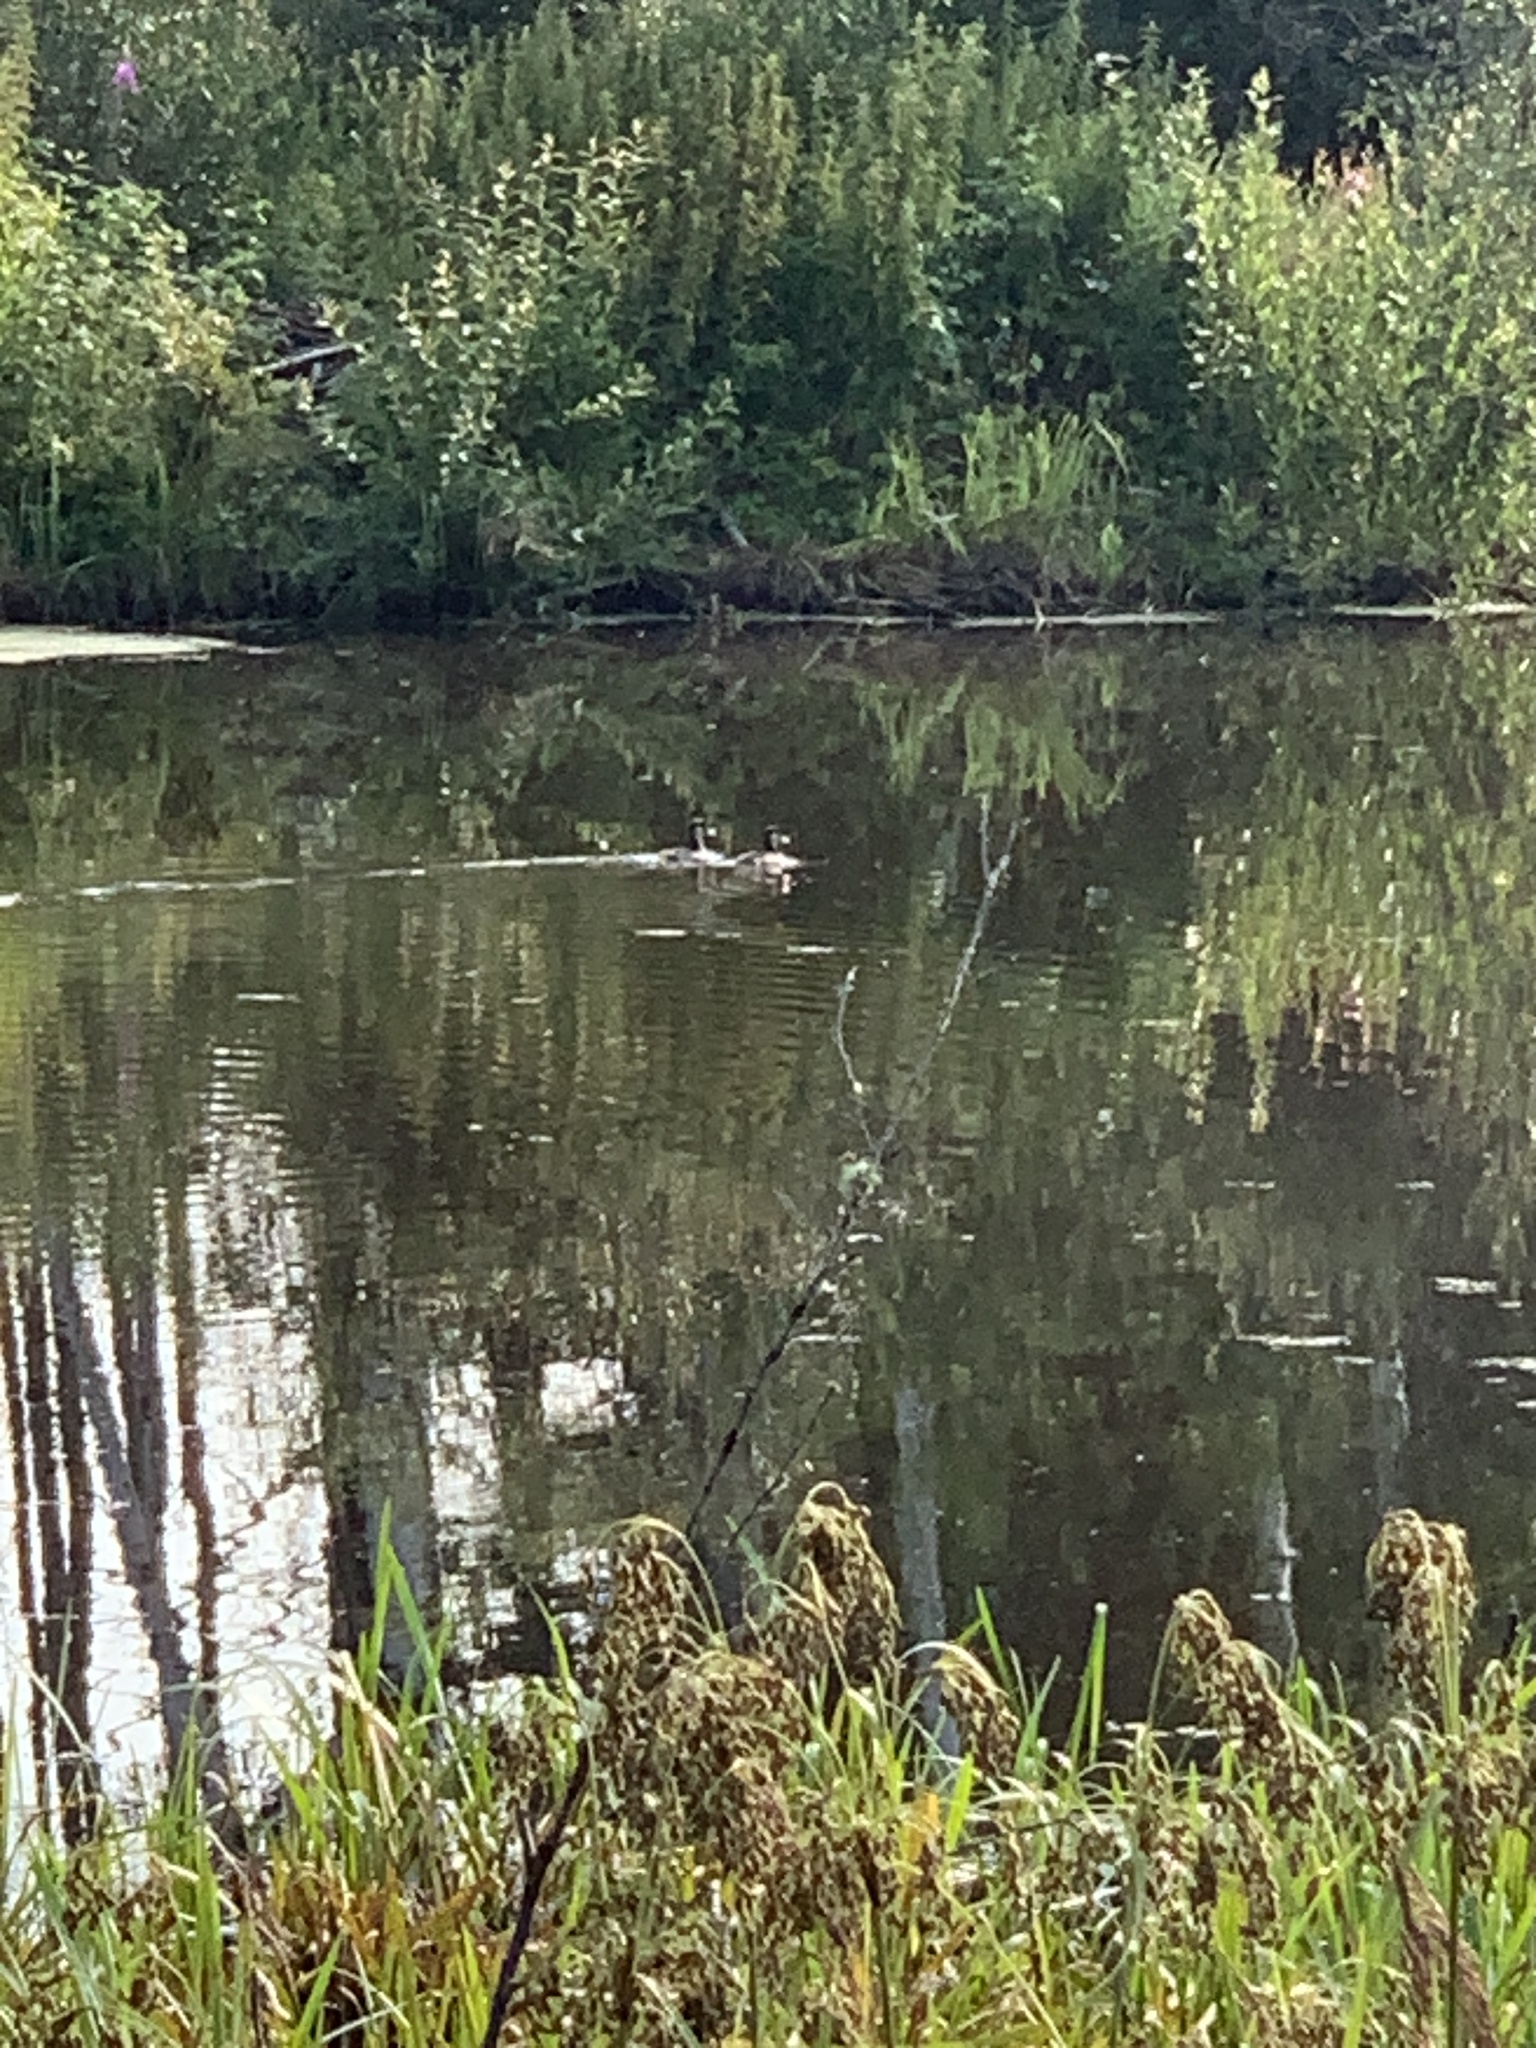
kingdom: Animalia
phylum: Chordata
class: Aves
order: Anseriformes
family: Anatidae
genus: Anas
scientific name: Anas platyrhynchos
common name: Mallard
